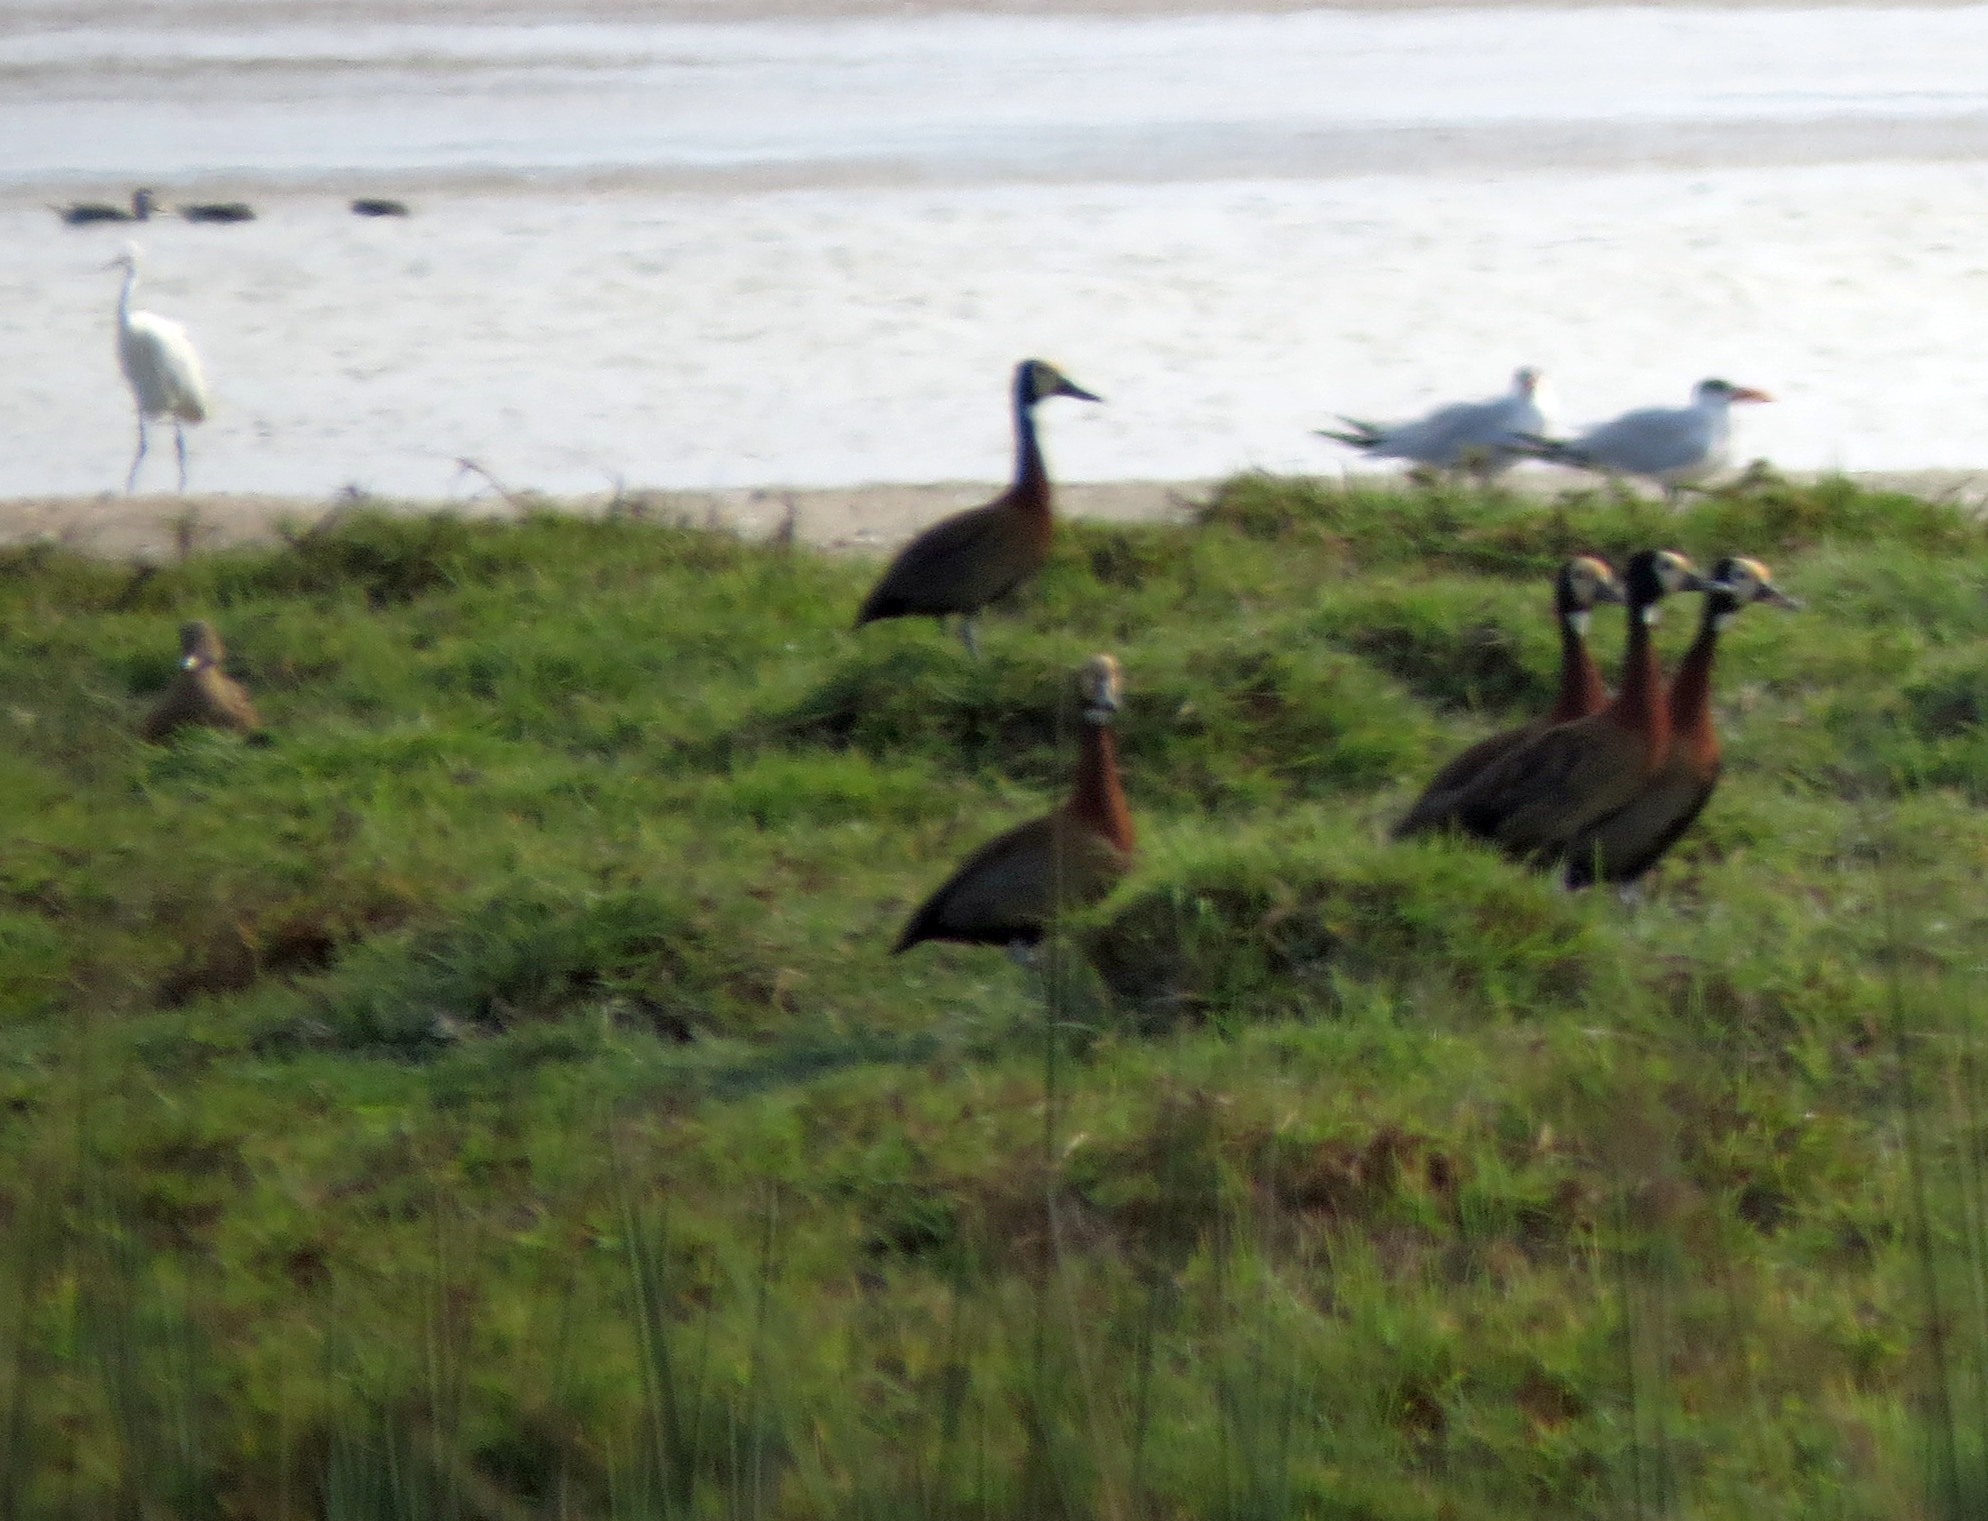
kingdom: Animalia
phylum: Chordata
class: Aves
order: Anseriformes
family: Anatidae
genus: Dendrocygna
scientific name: Dendrocygna viduata
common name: White-faced whistling duck
